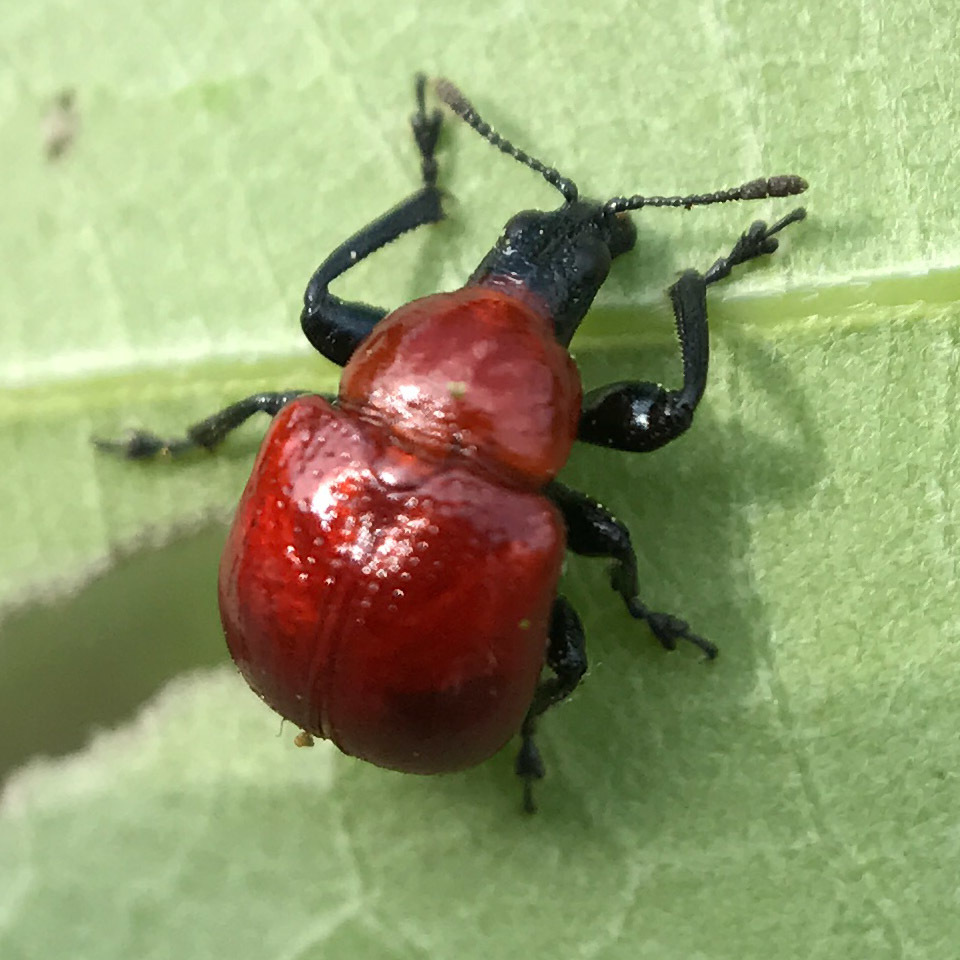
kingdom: Animalia
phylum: Arthropoda
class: Insecta
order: Coleoptera
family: Attelabidae
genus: Homoeolabus
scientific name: Homoeolabus analis
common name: Oak leaf rolling weevil
